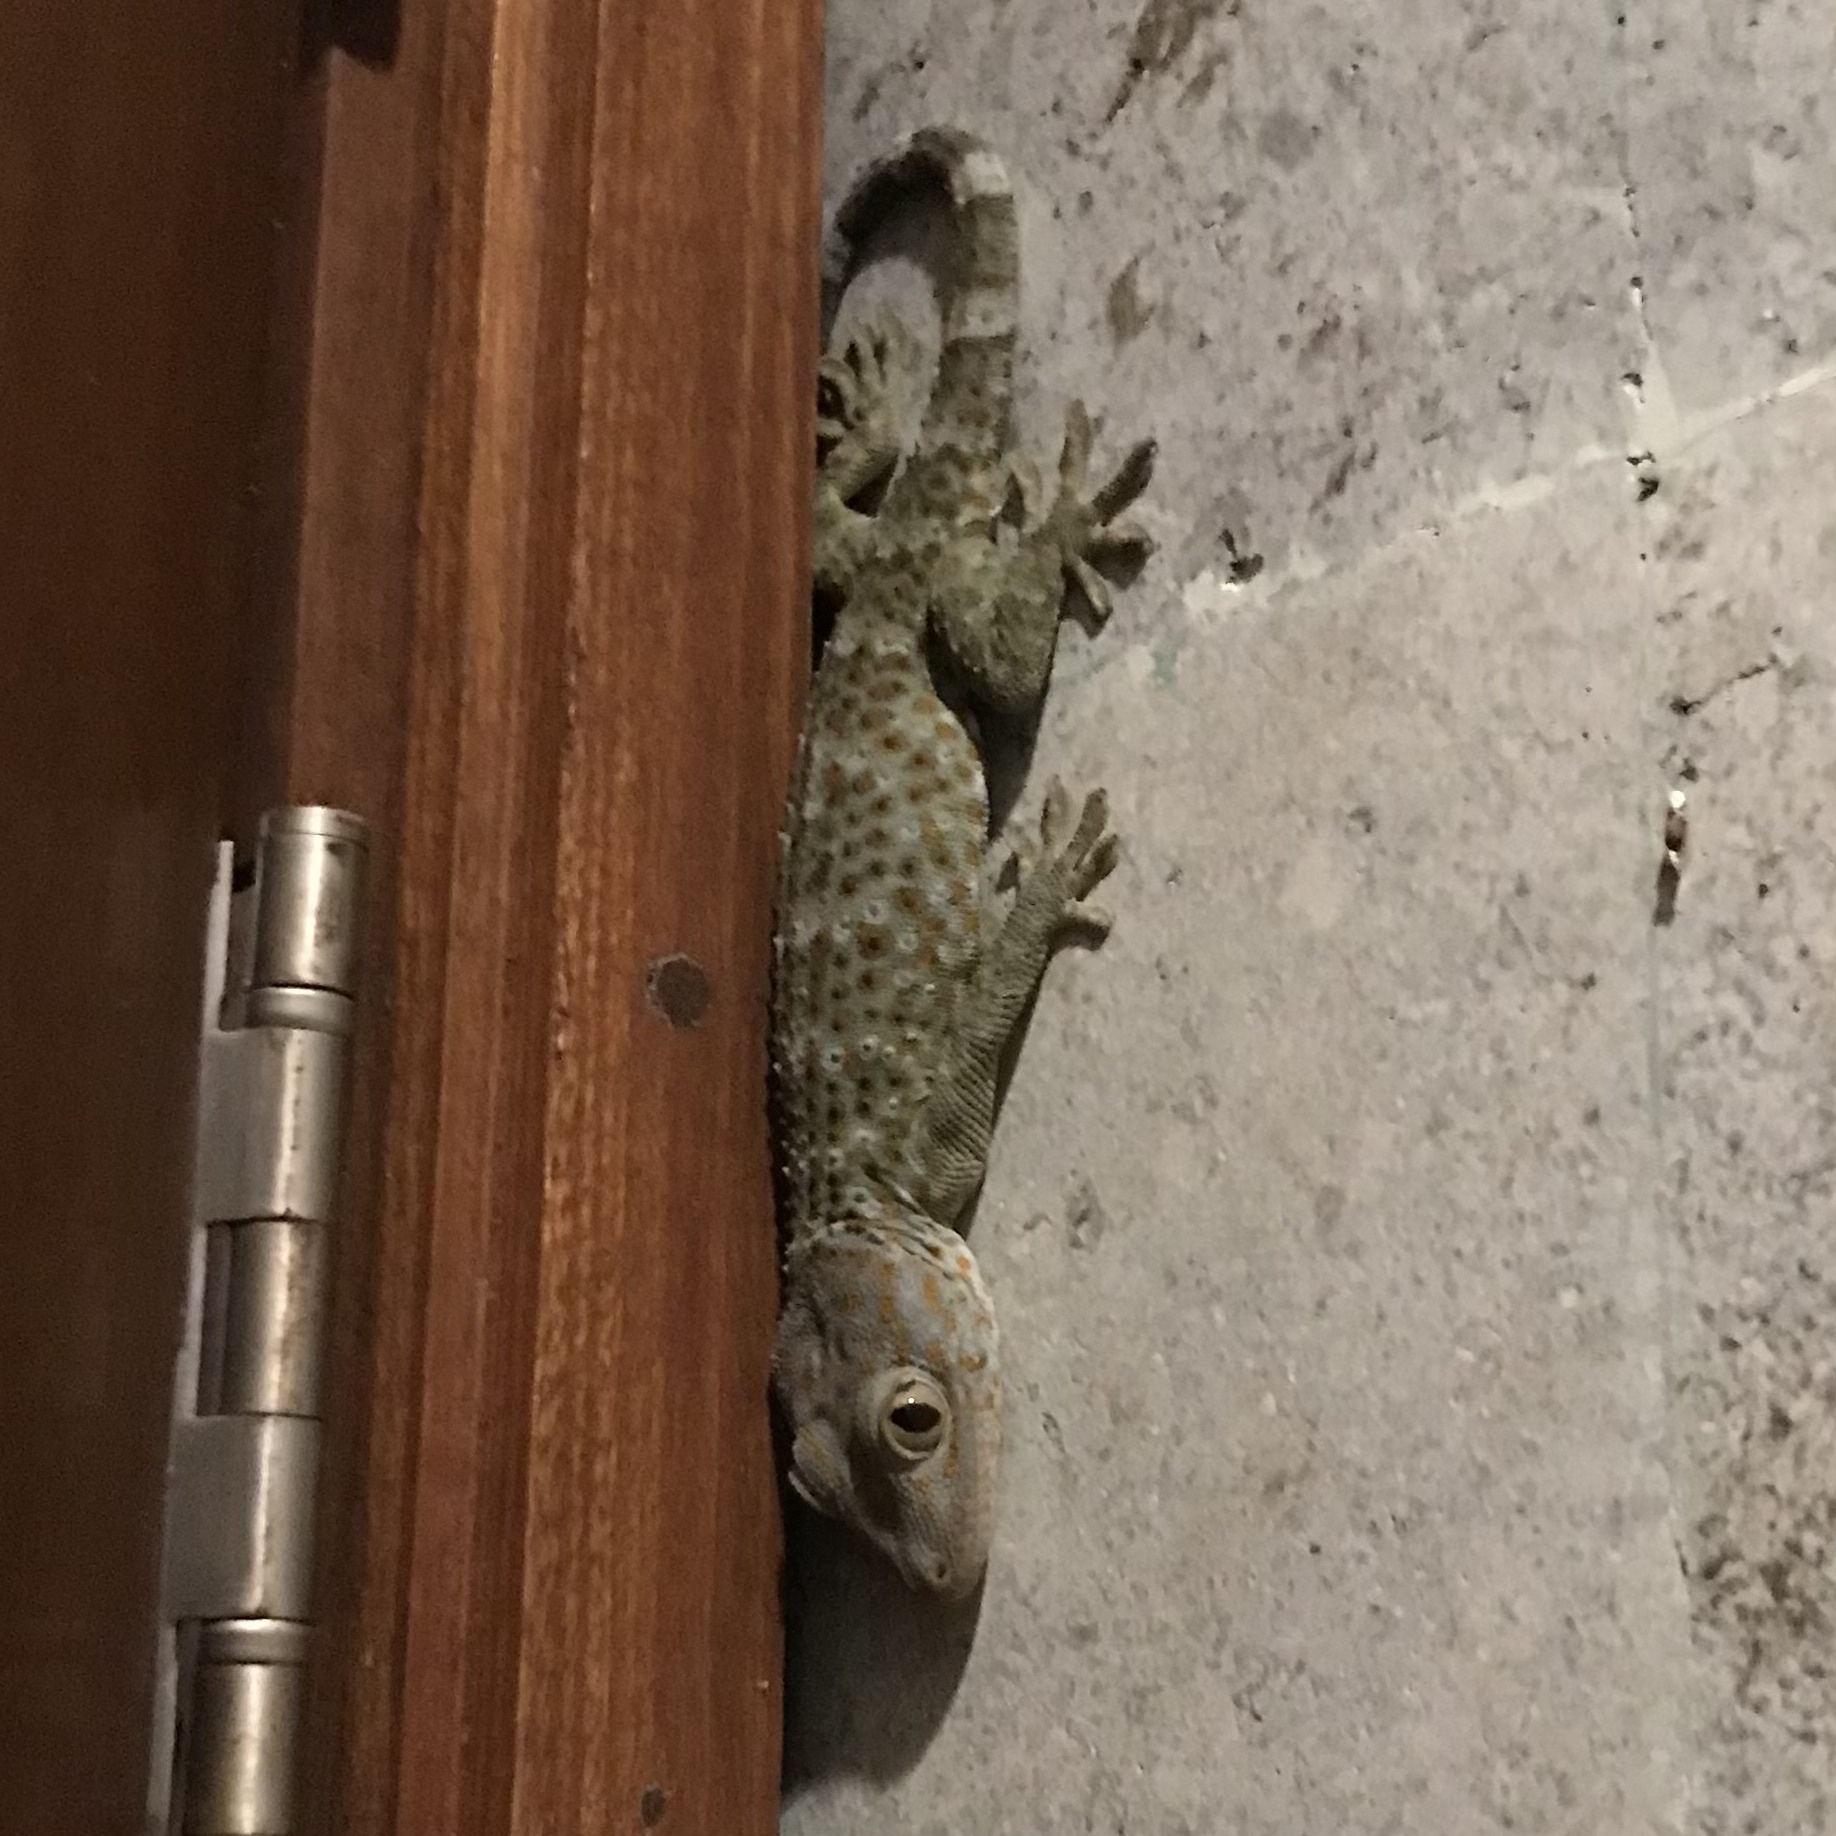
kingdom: Animalia
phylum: Chordata
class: Squamata
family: Gekkonidae
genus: Gekko
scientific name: Gekko gecko
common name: Tokay gecko
